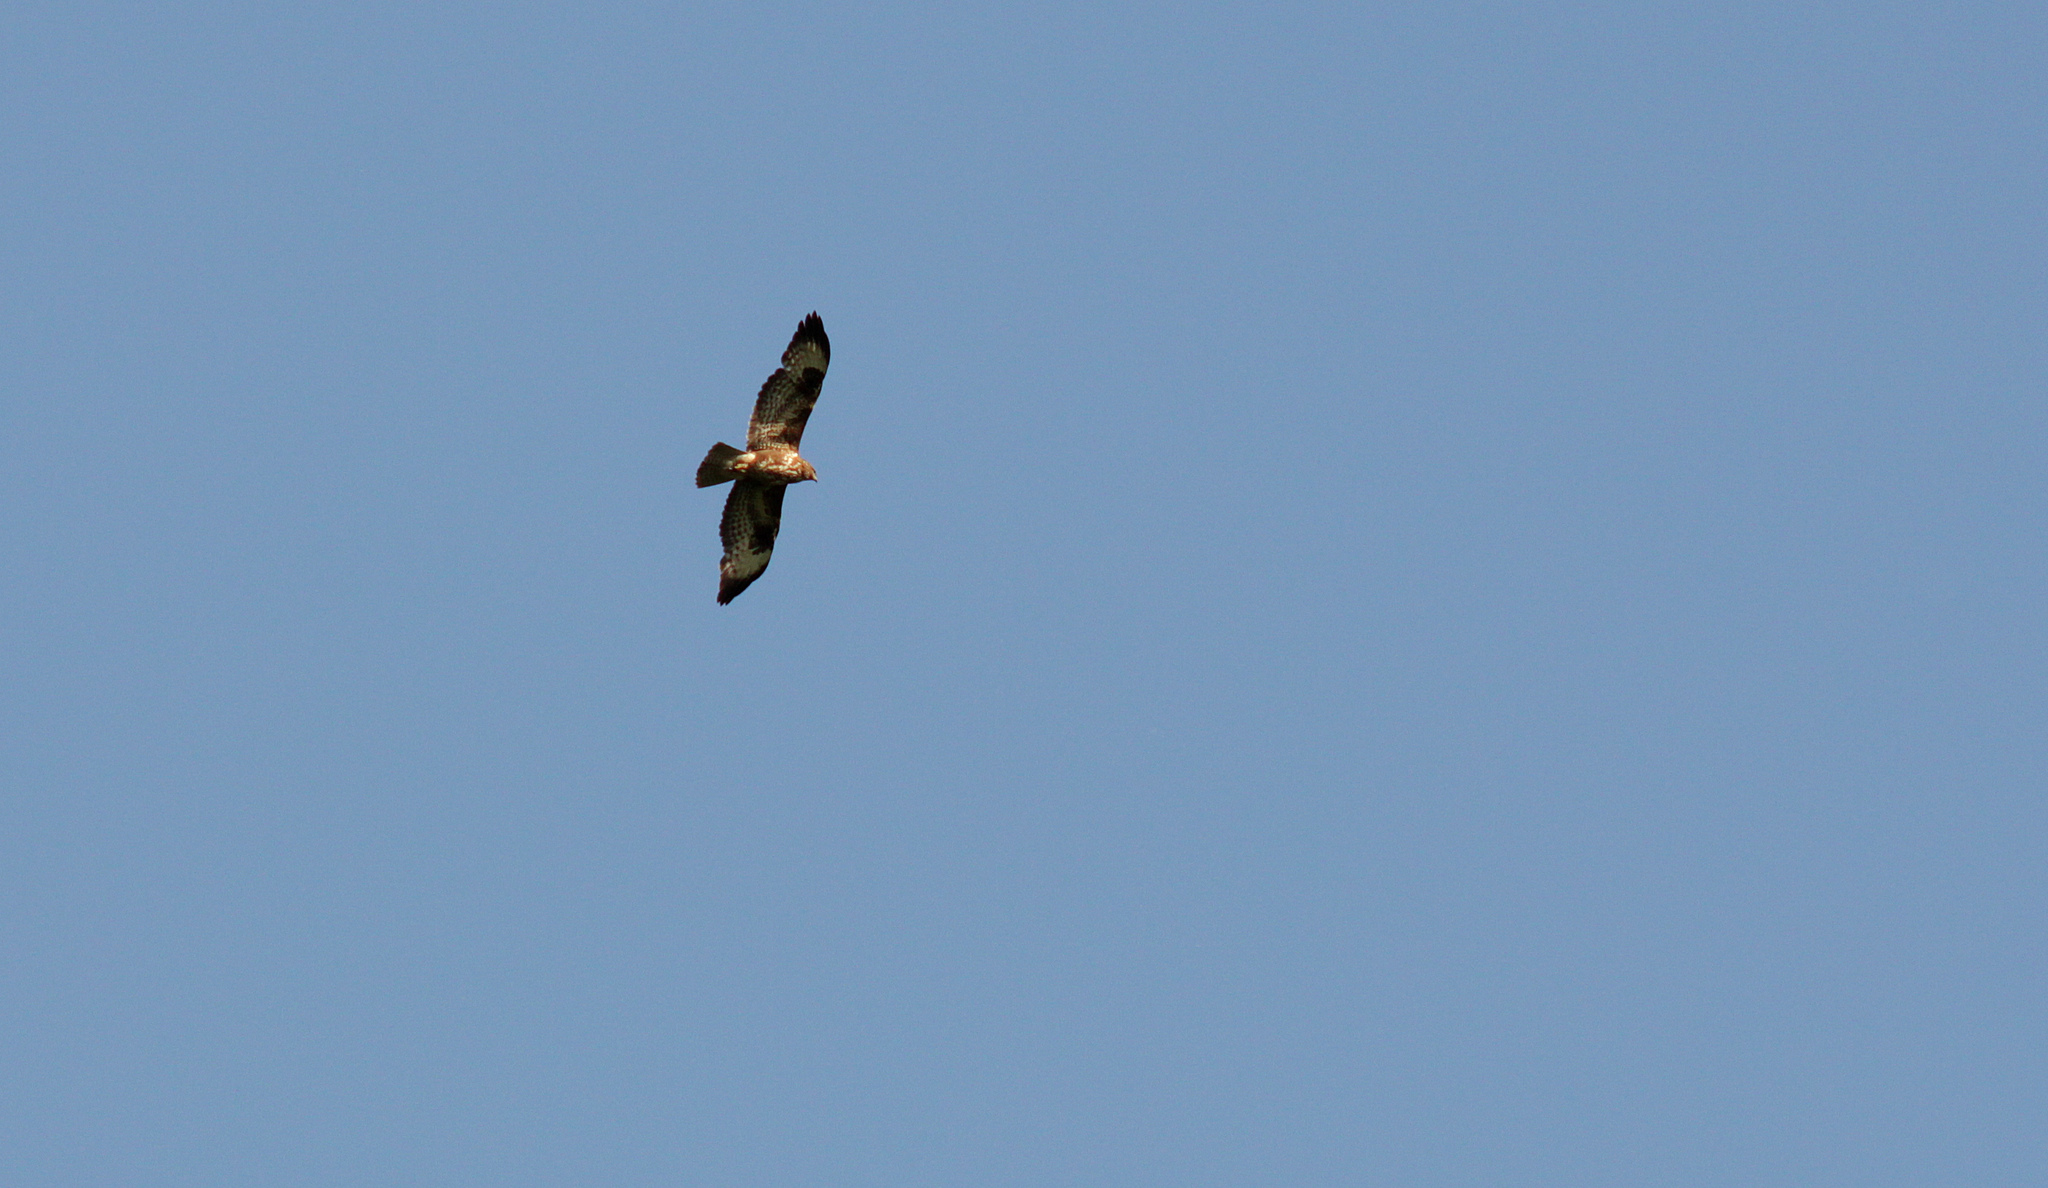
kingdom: Animalia
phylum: Chordata
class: Aves
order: Accipitriformes
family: Accipitridae
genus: Buteo
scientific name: Buteo buteo
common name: Common buzzard
